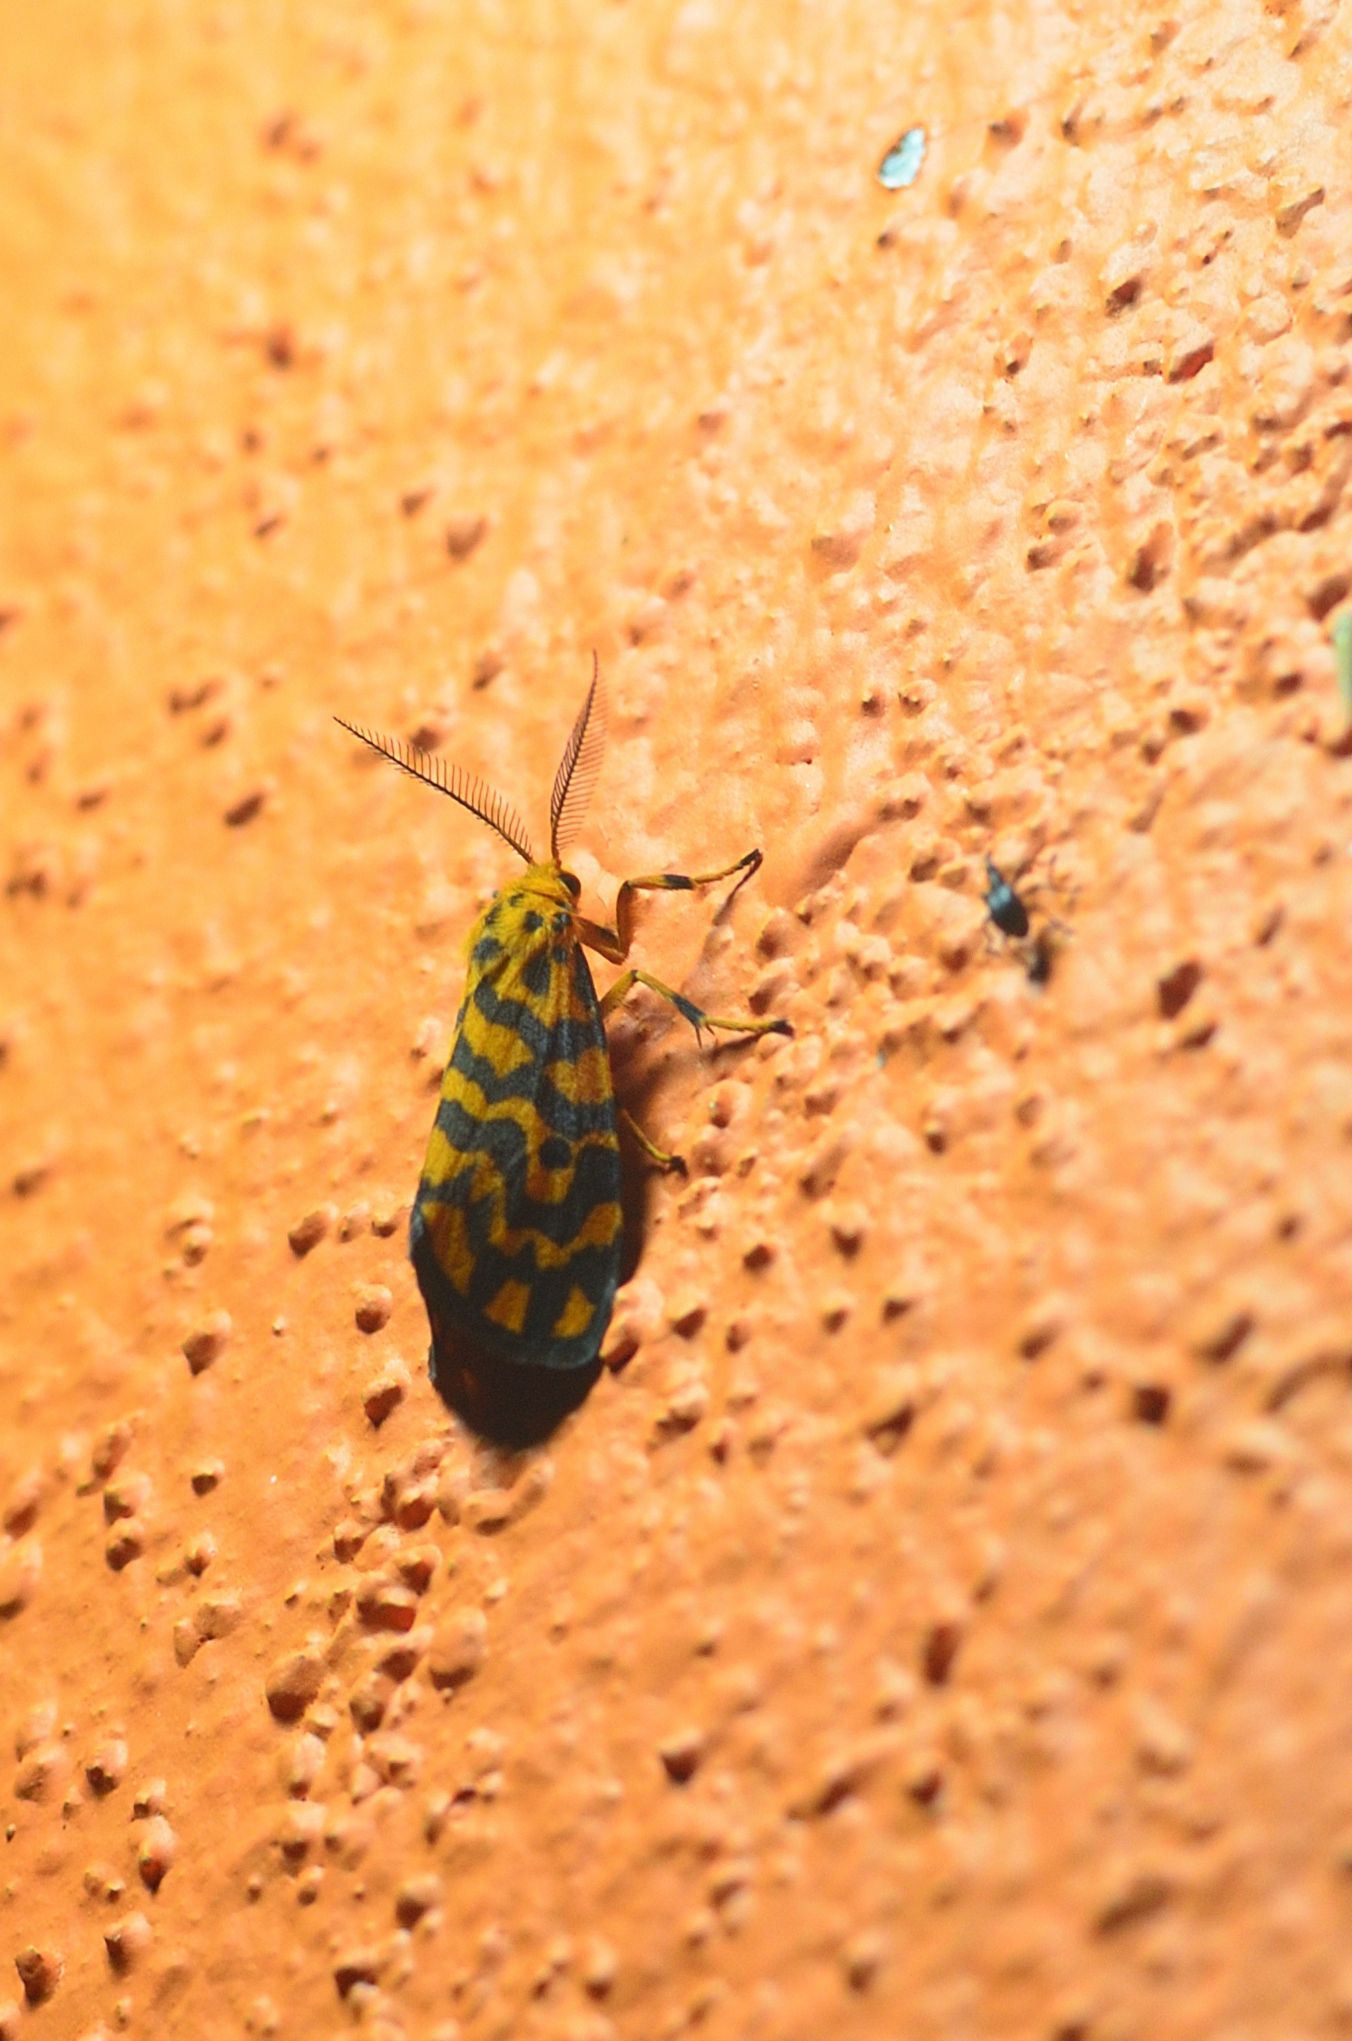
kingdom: Animalia
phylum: Arthropoda
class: Insecta
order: Lepidoptera
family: Erebidae
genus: Nepita
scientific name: Nepita conferta
